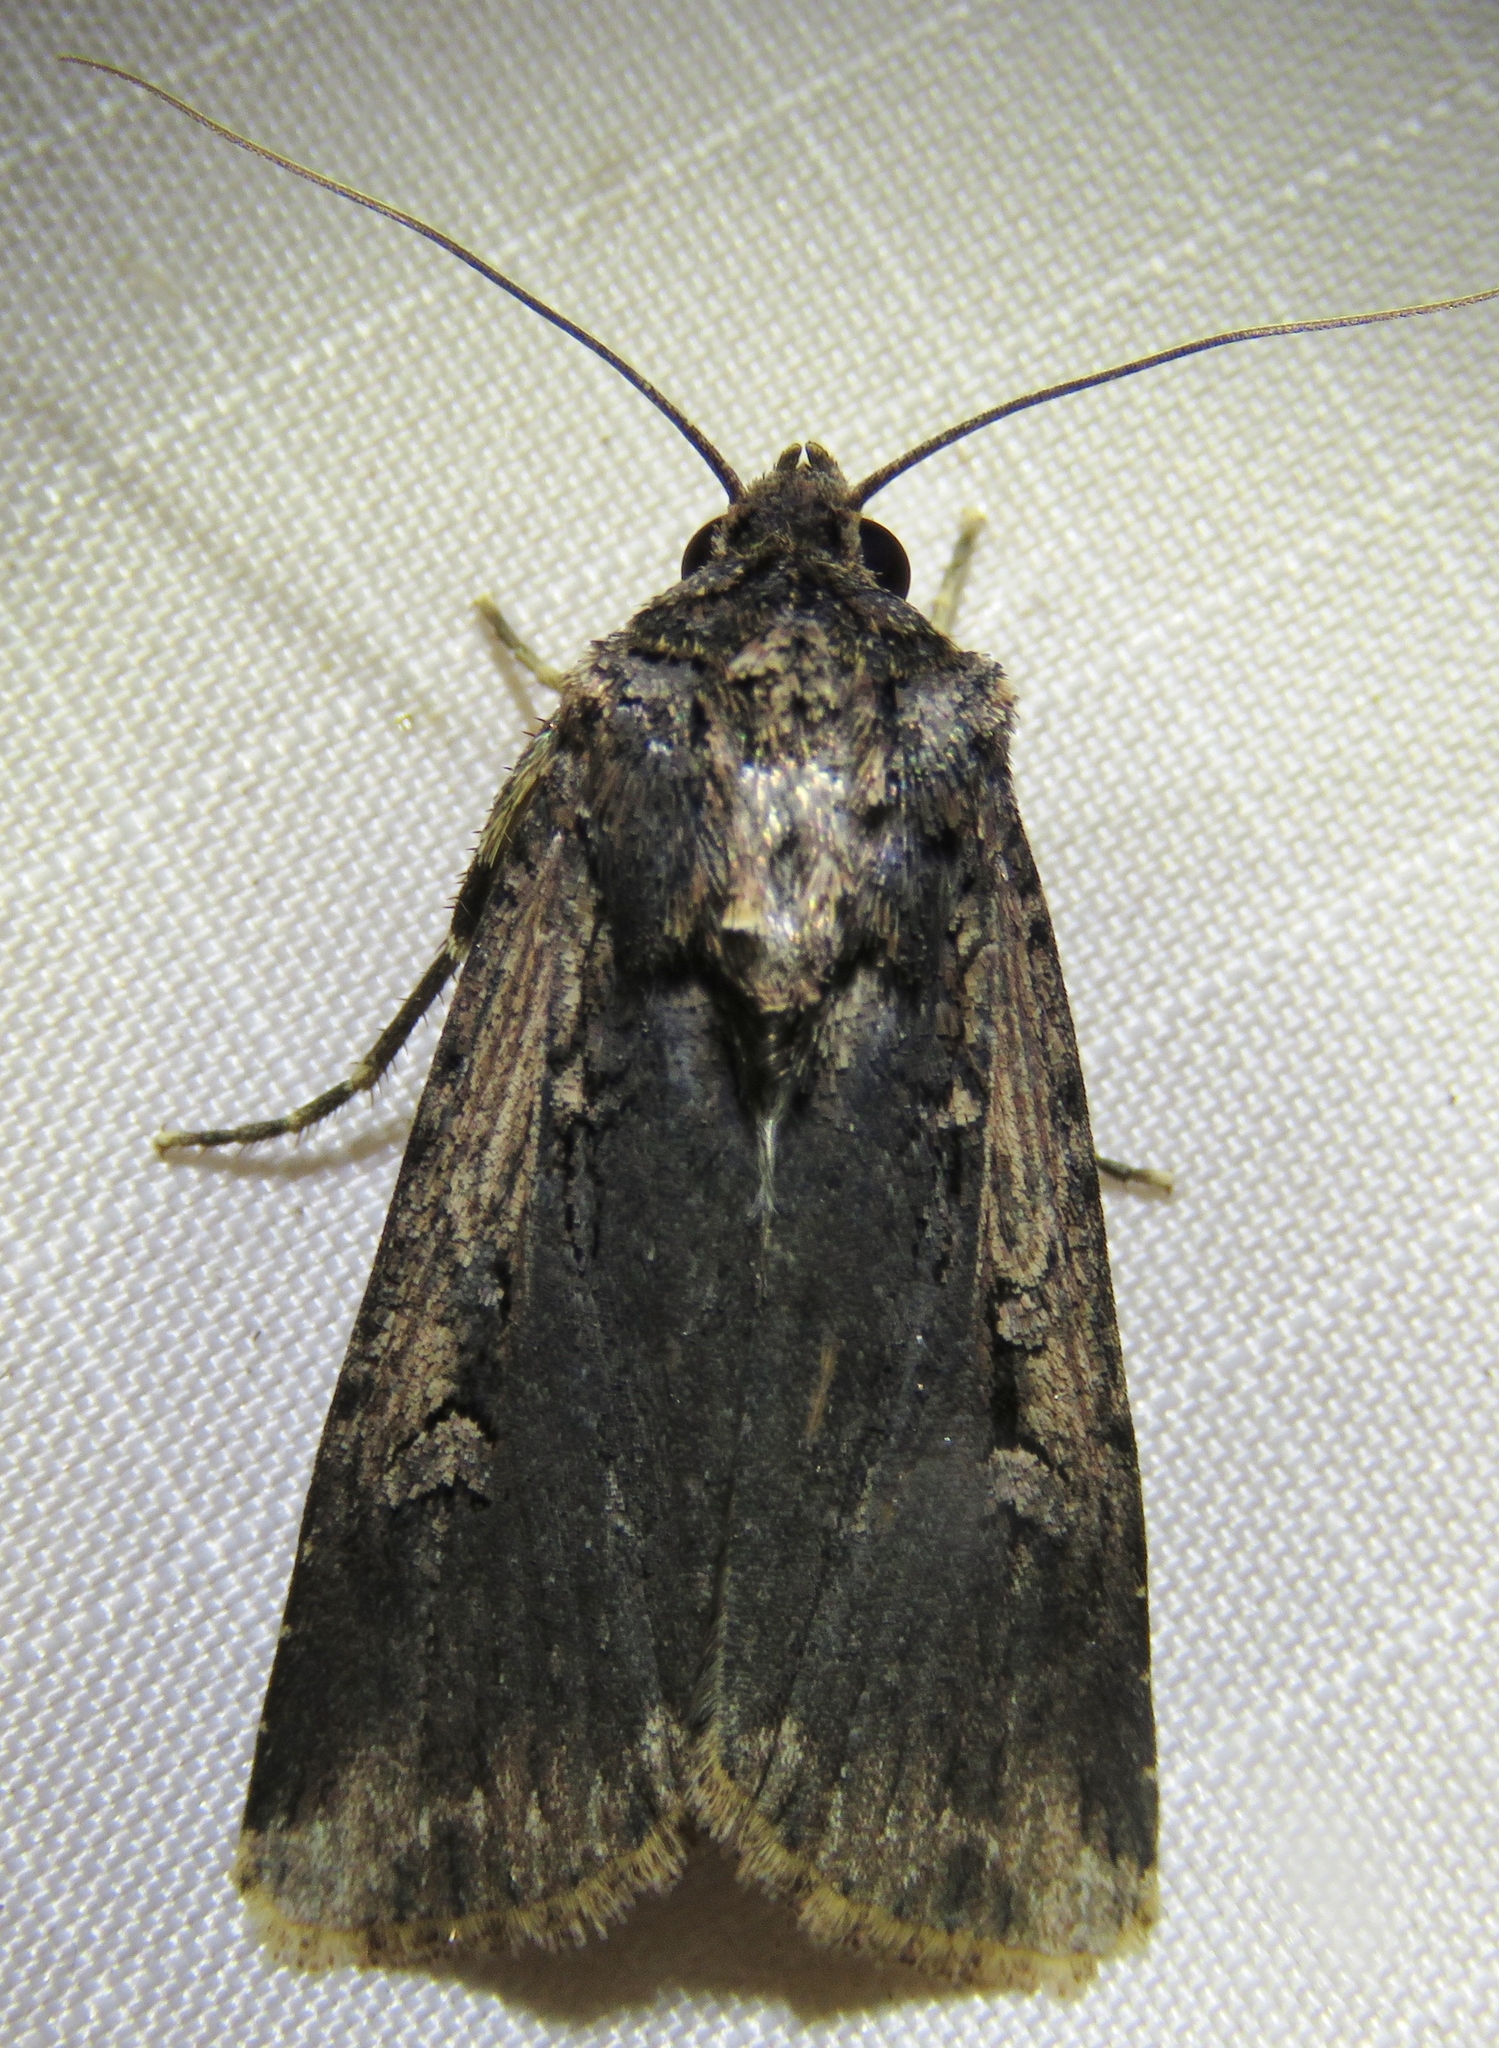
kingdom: Animalia
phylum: Arthropoda
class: Insecta
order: Lepidoptera
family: Noctuidae
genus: Feltia
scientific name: Feltia subterranea
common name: Granulate cutworm
